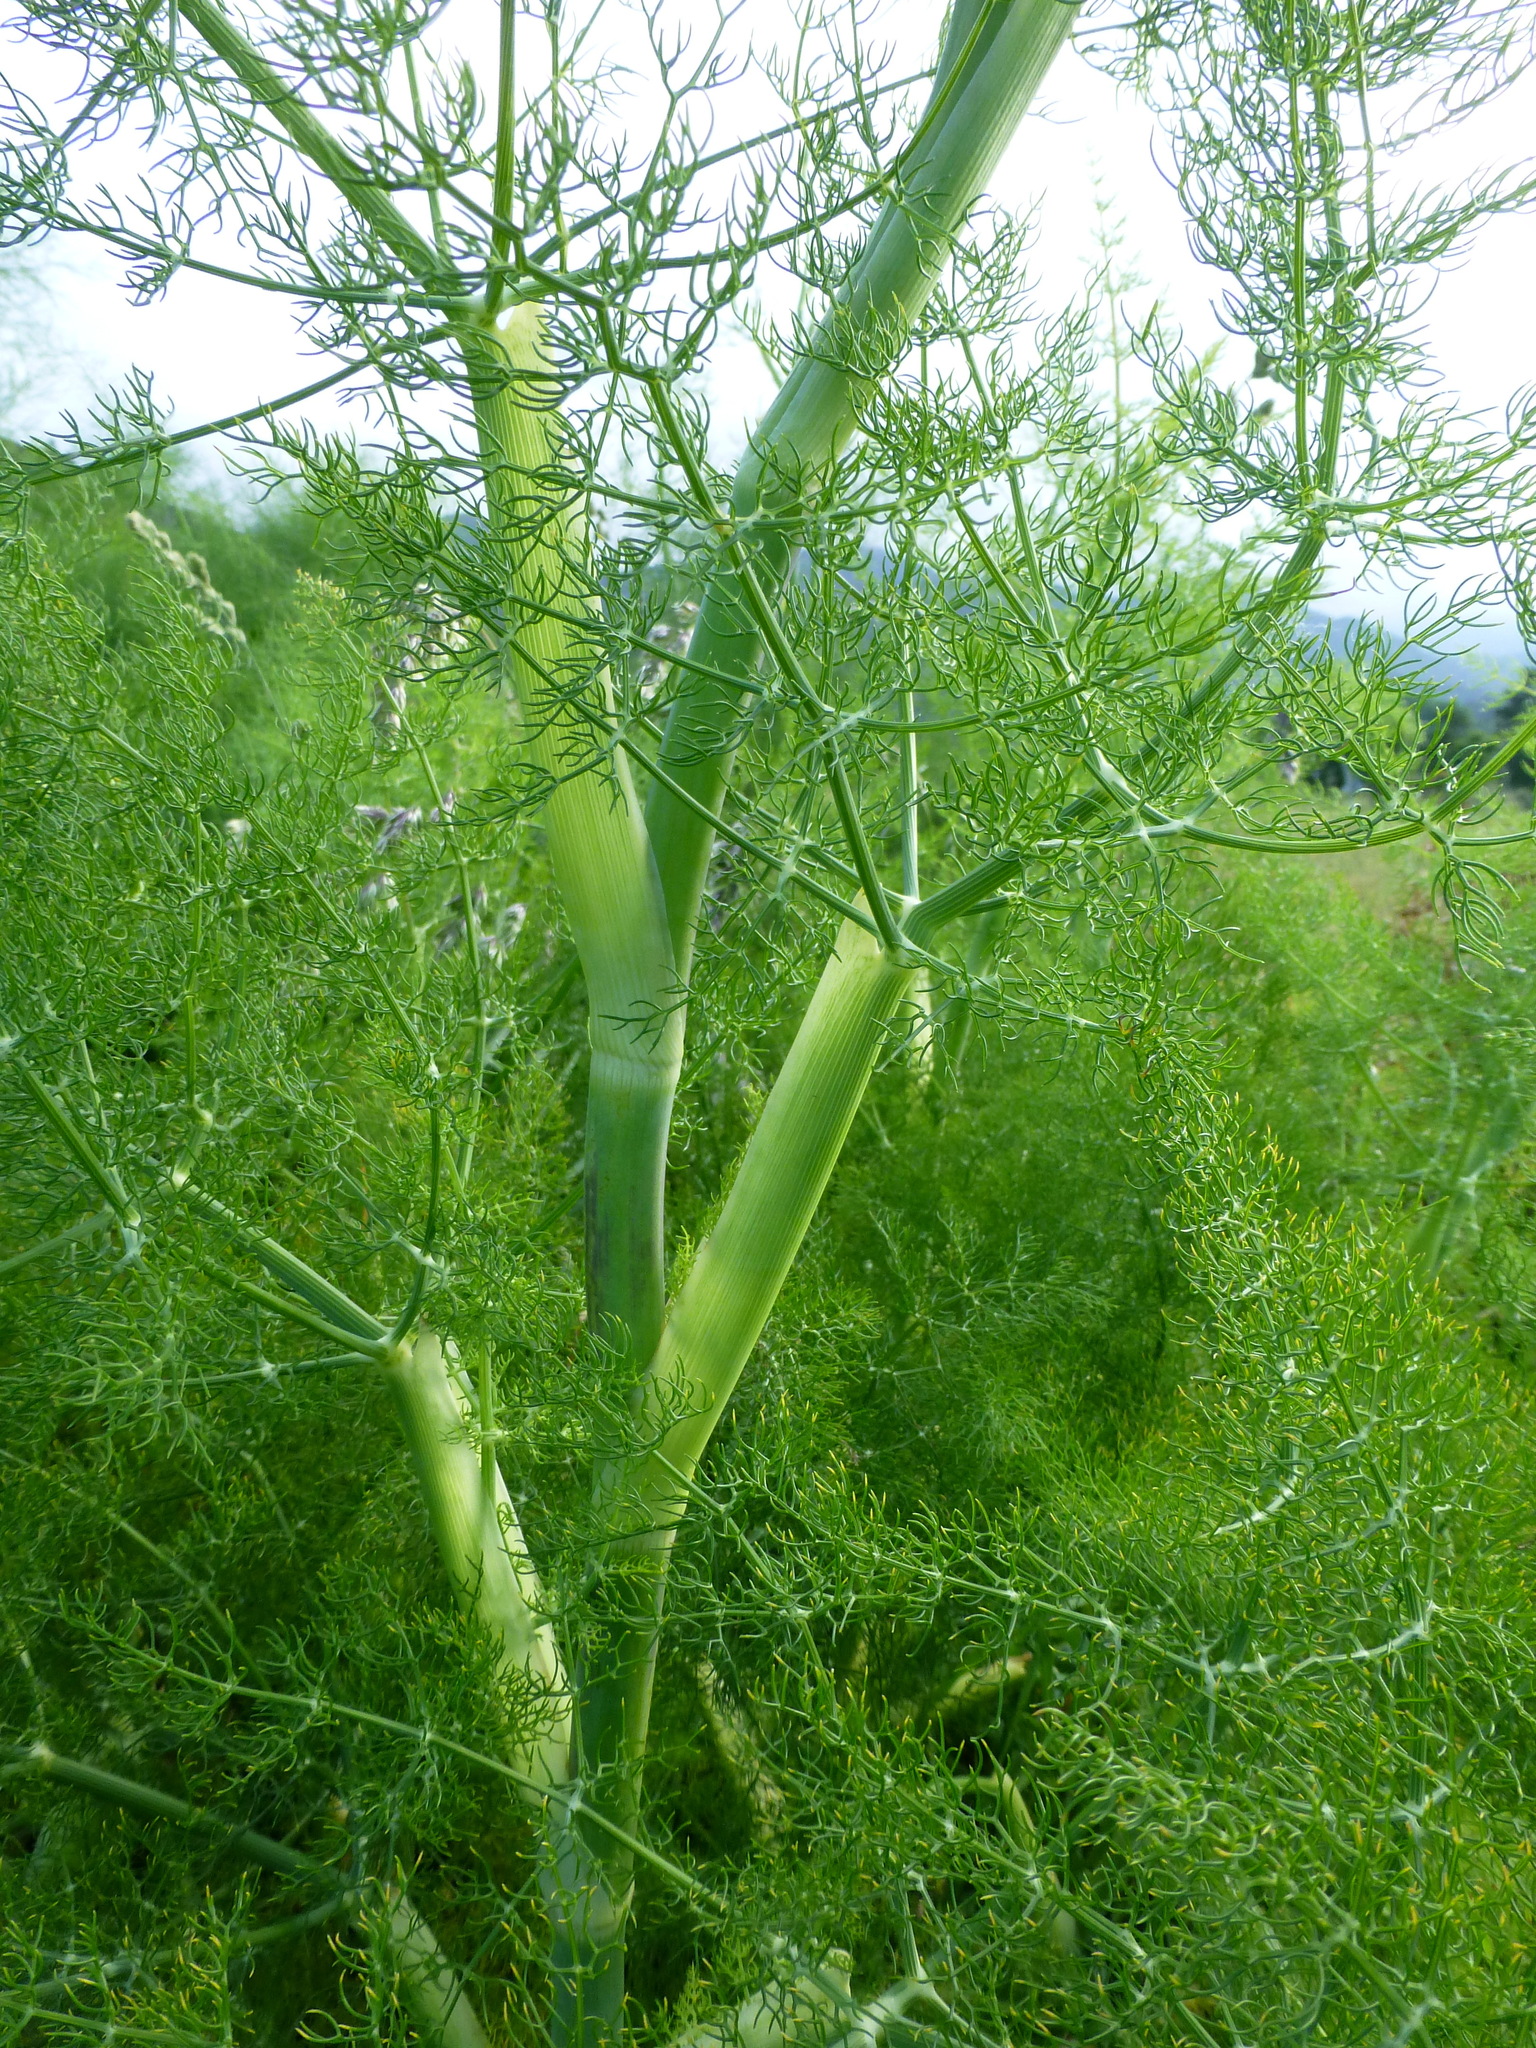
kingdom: Plantae
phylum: Tracheophyta
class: Magnoliopsida
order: Apiales
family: Apiaceae
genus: Foeniculum
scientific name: Foeniculum vulgare
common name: Fennel
